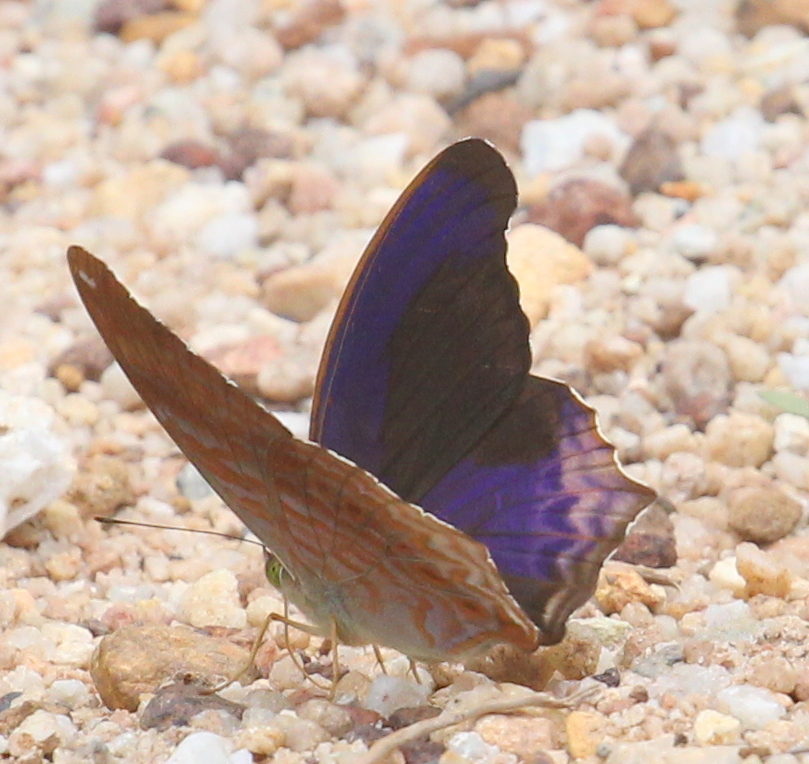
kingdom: Animalia
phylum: Arthropoda
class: Insecta
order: Lepidoptera
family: Nymphalidae
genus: Terinos
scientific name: Terinos clarissa
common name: Malayan assyrian
